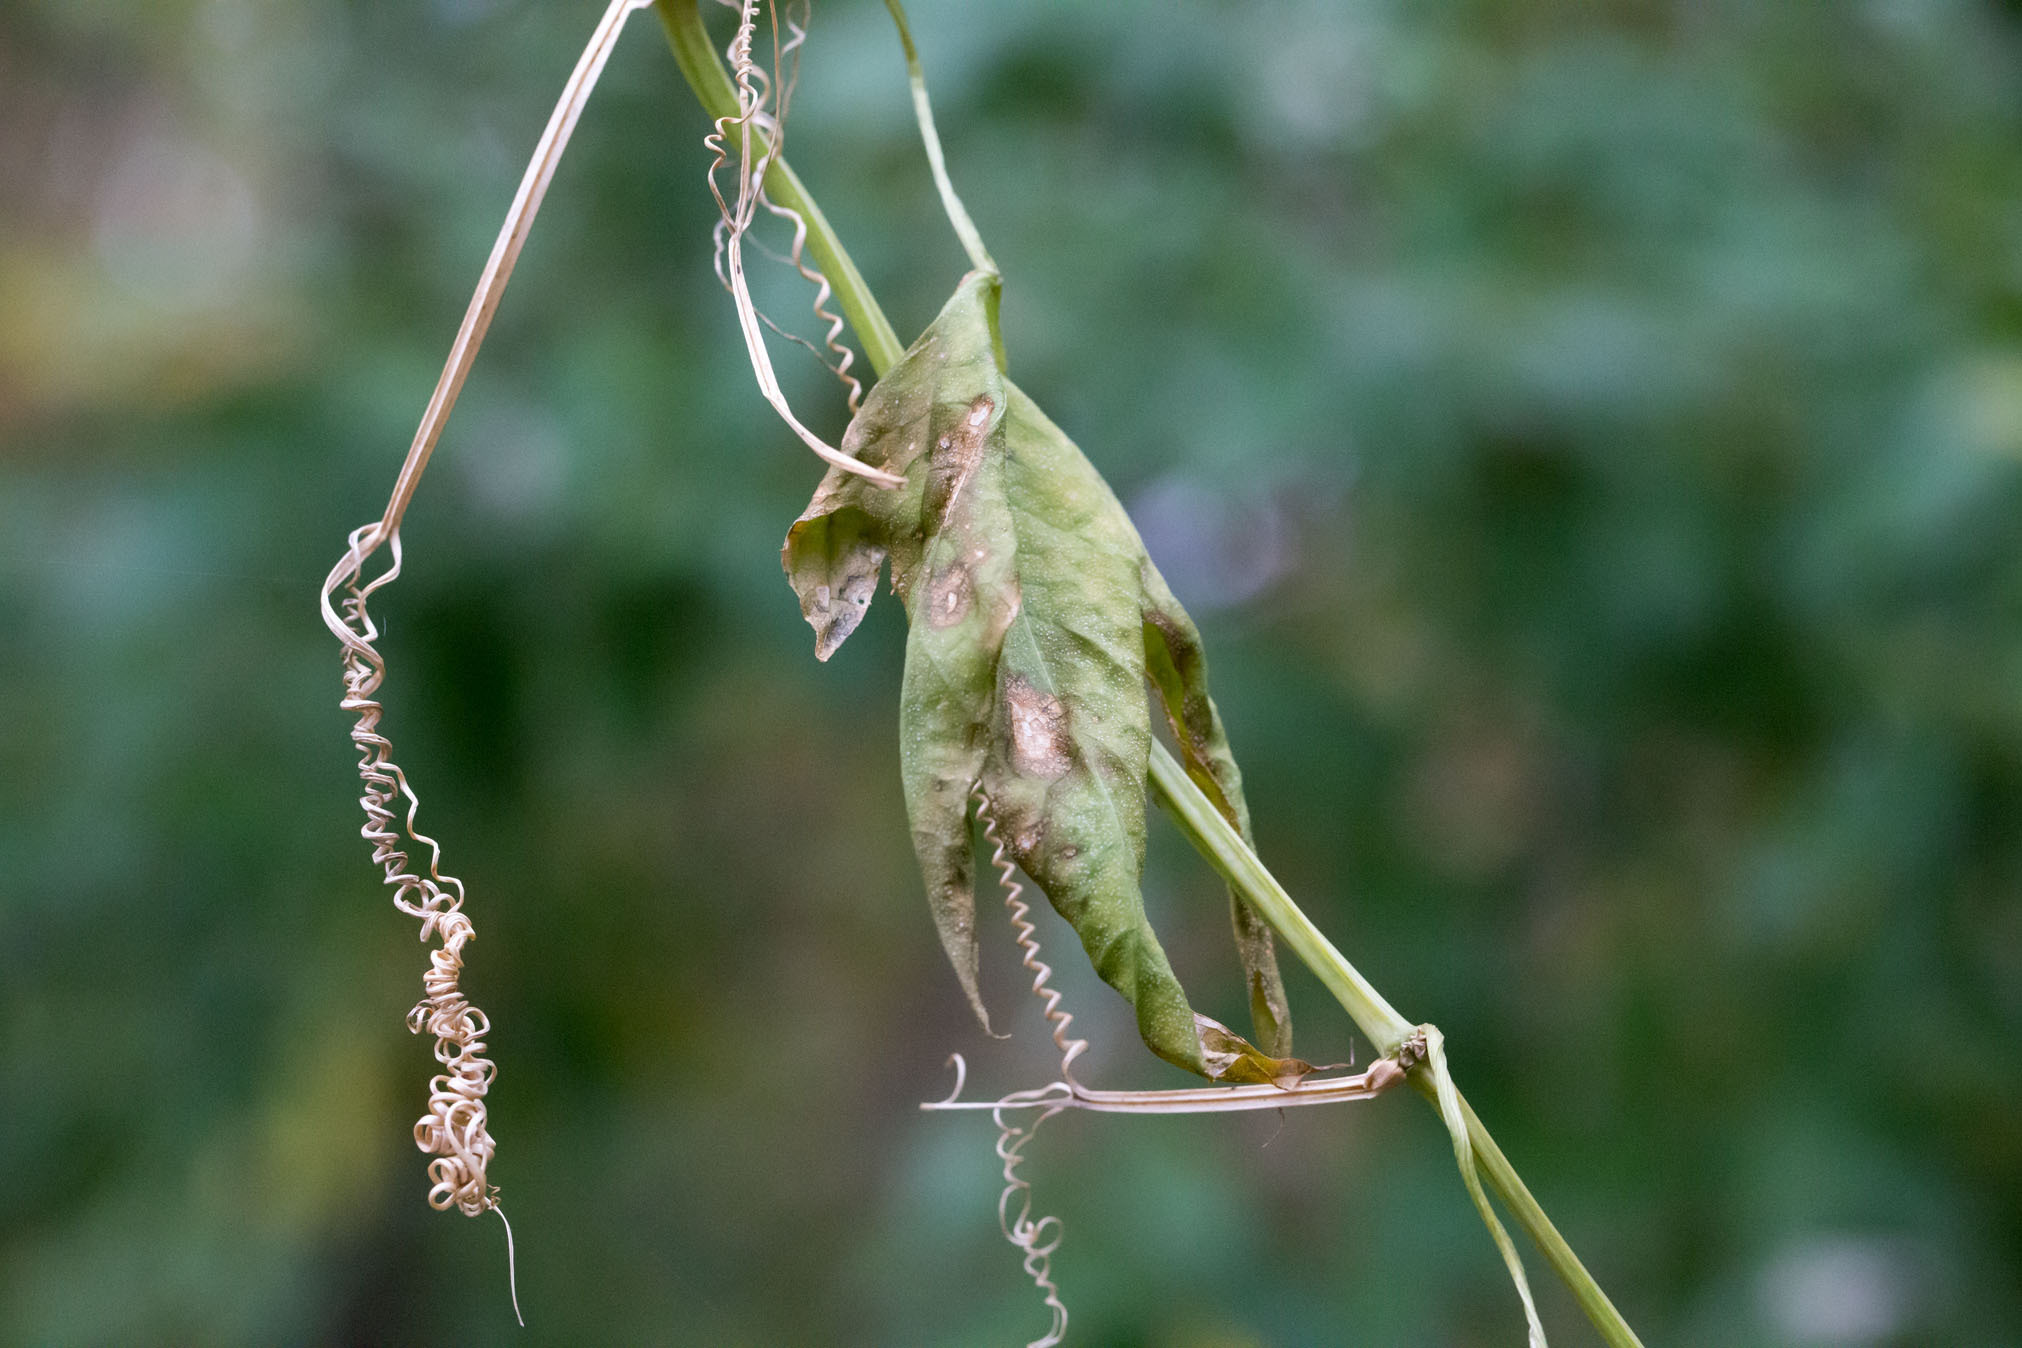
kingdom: Plantae
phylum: Tracheophyta
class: Magnoliopsida
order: Cucurbitales
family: Cucurbitaceae
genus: Echinocystis
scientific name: Echinocystis lobata
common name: Wild cucumber
